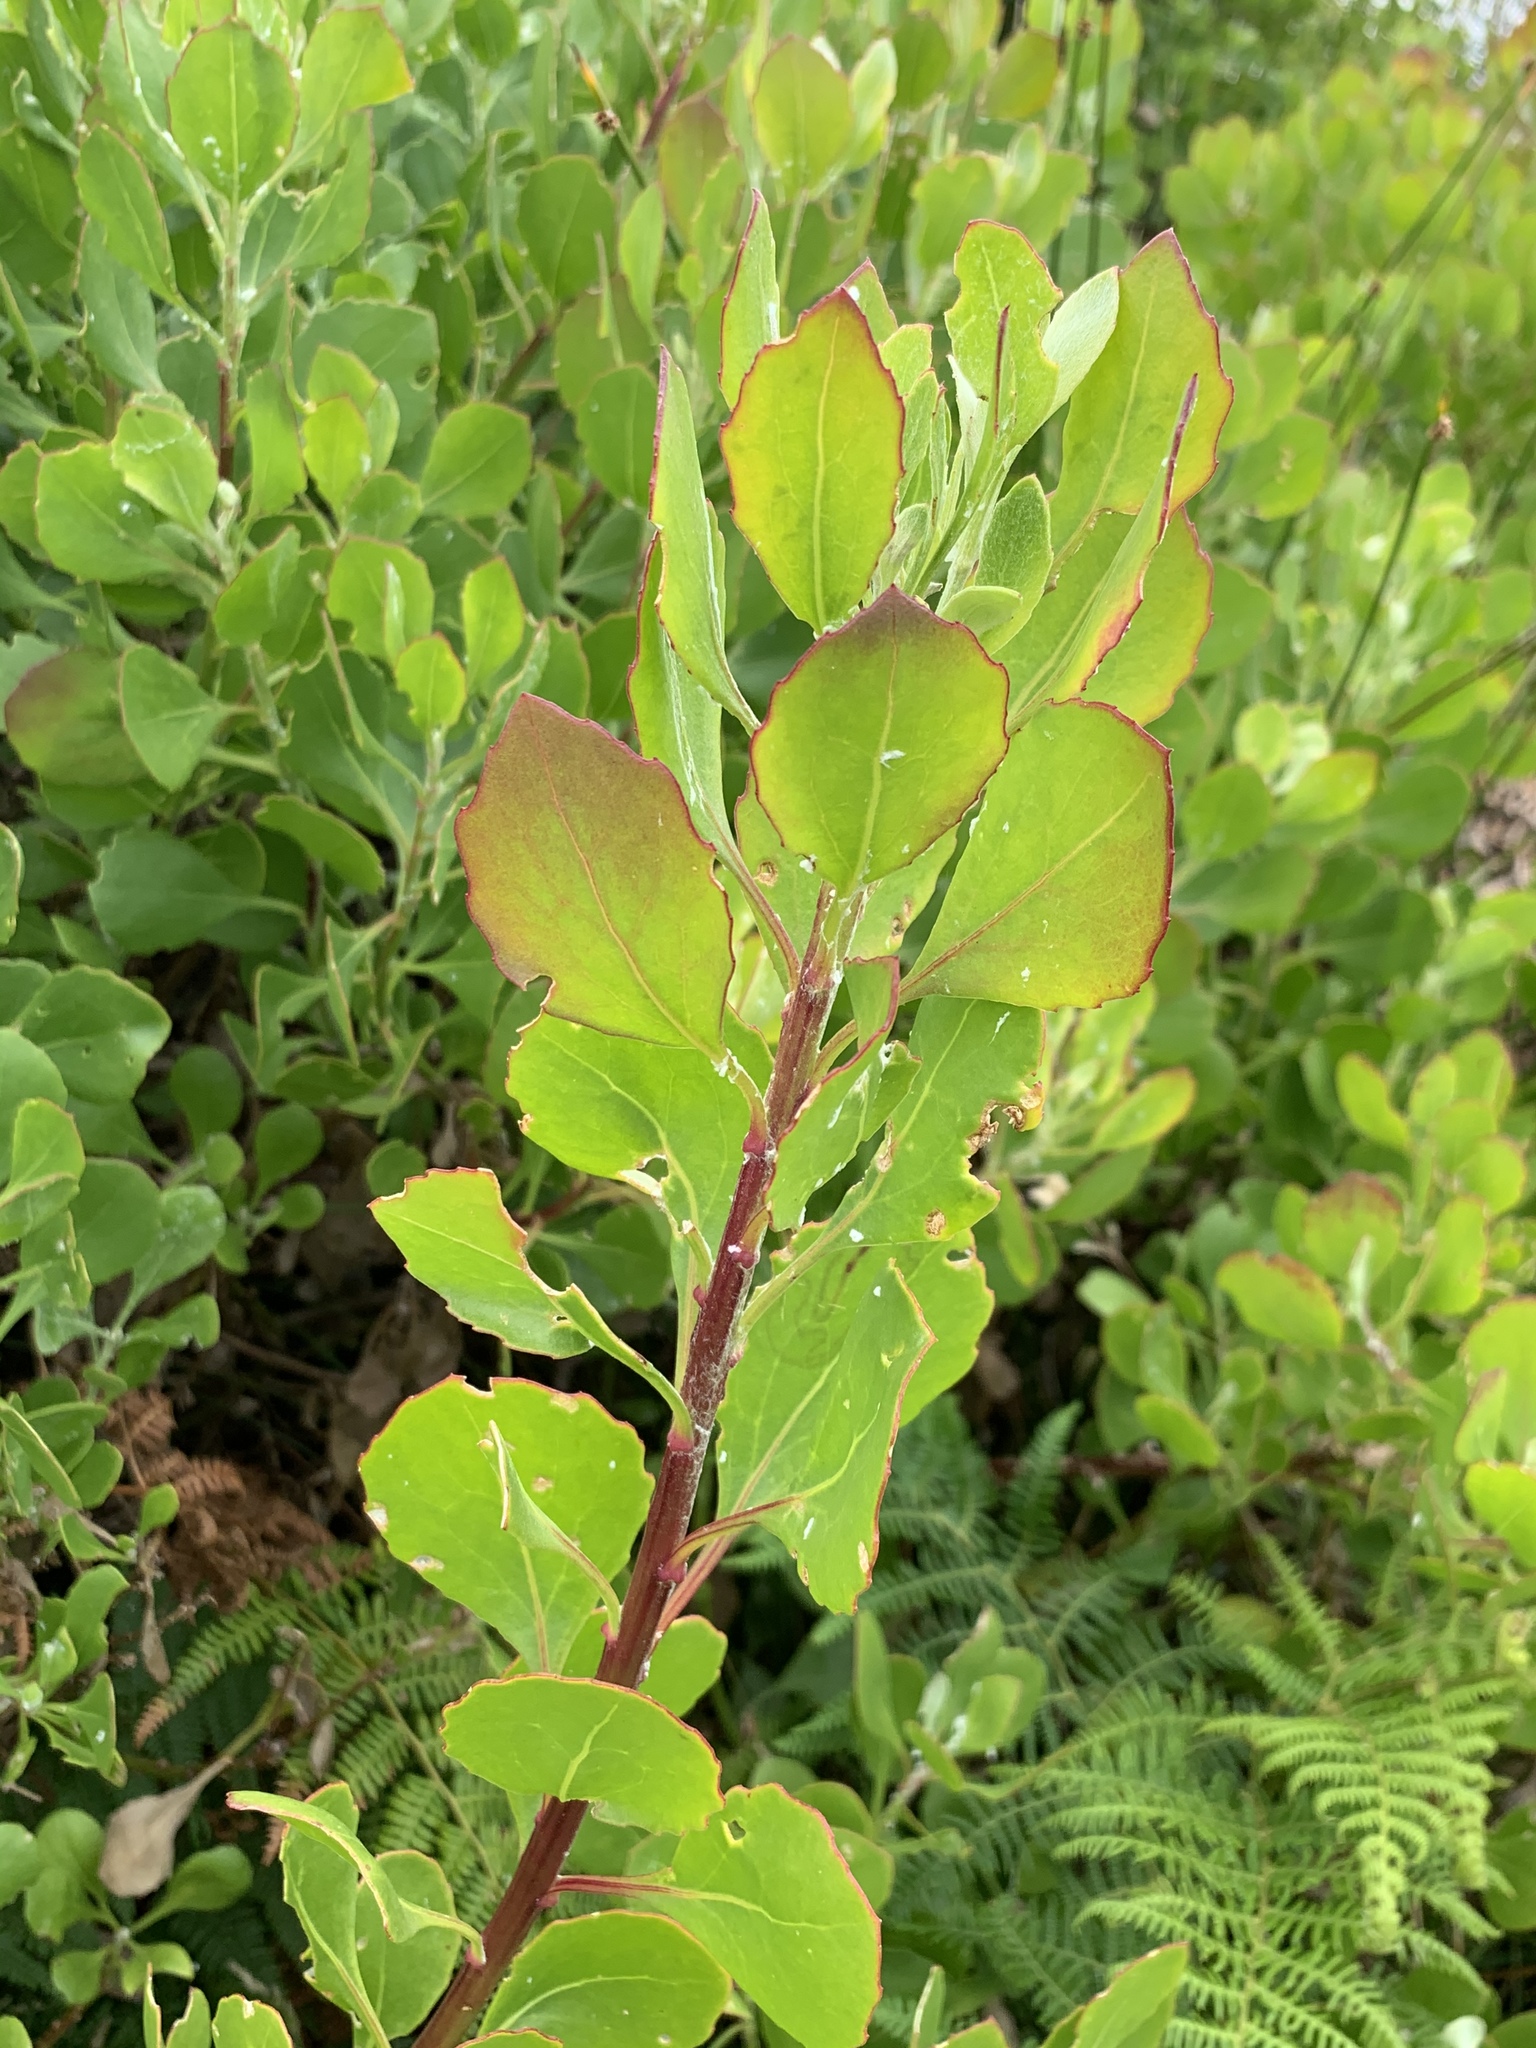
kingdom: Plantae
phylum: Tracheophyta
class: Magnoliopsida
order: Asterales
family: Asteraceae
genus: Osteospermum
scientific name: Osteospermum moniliferum
